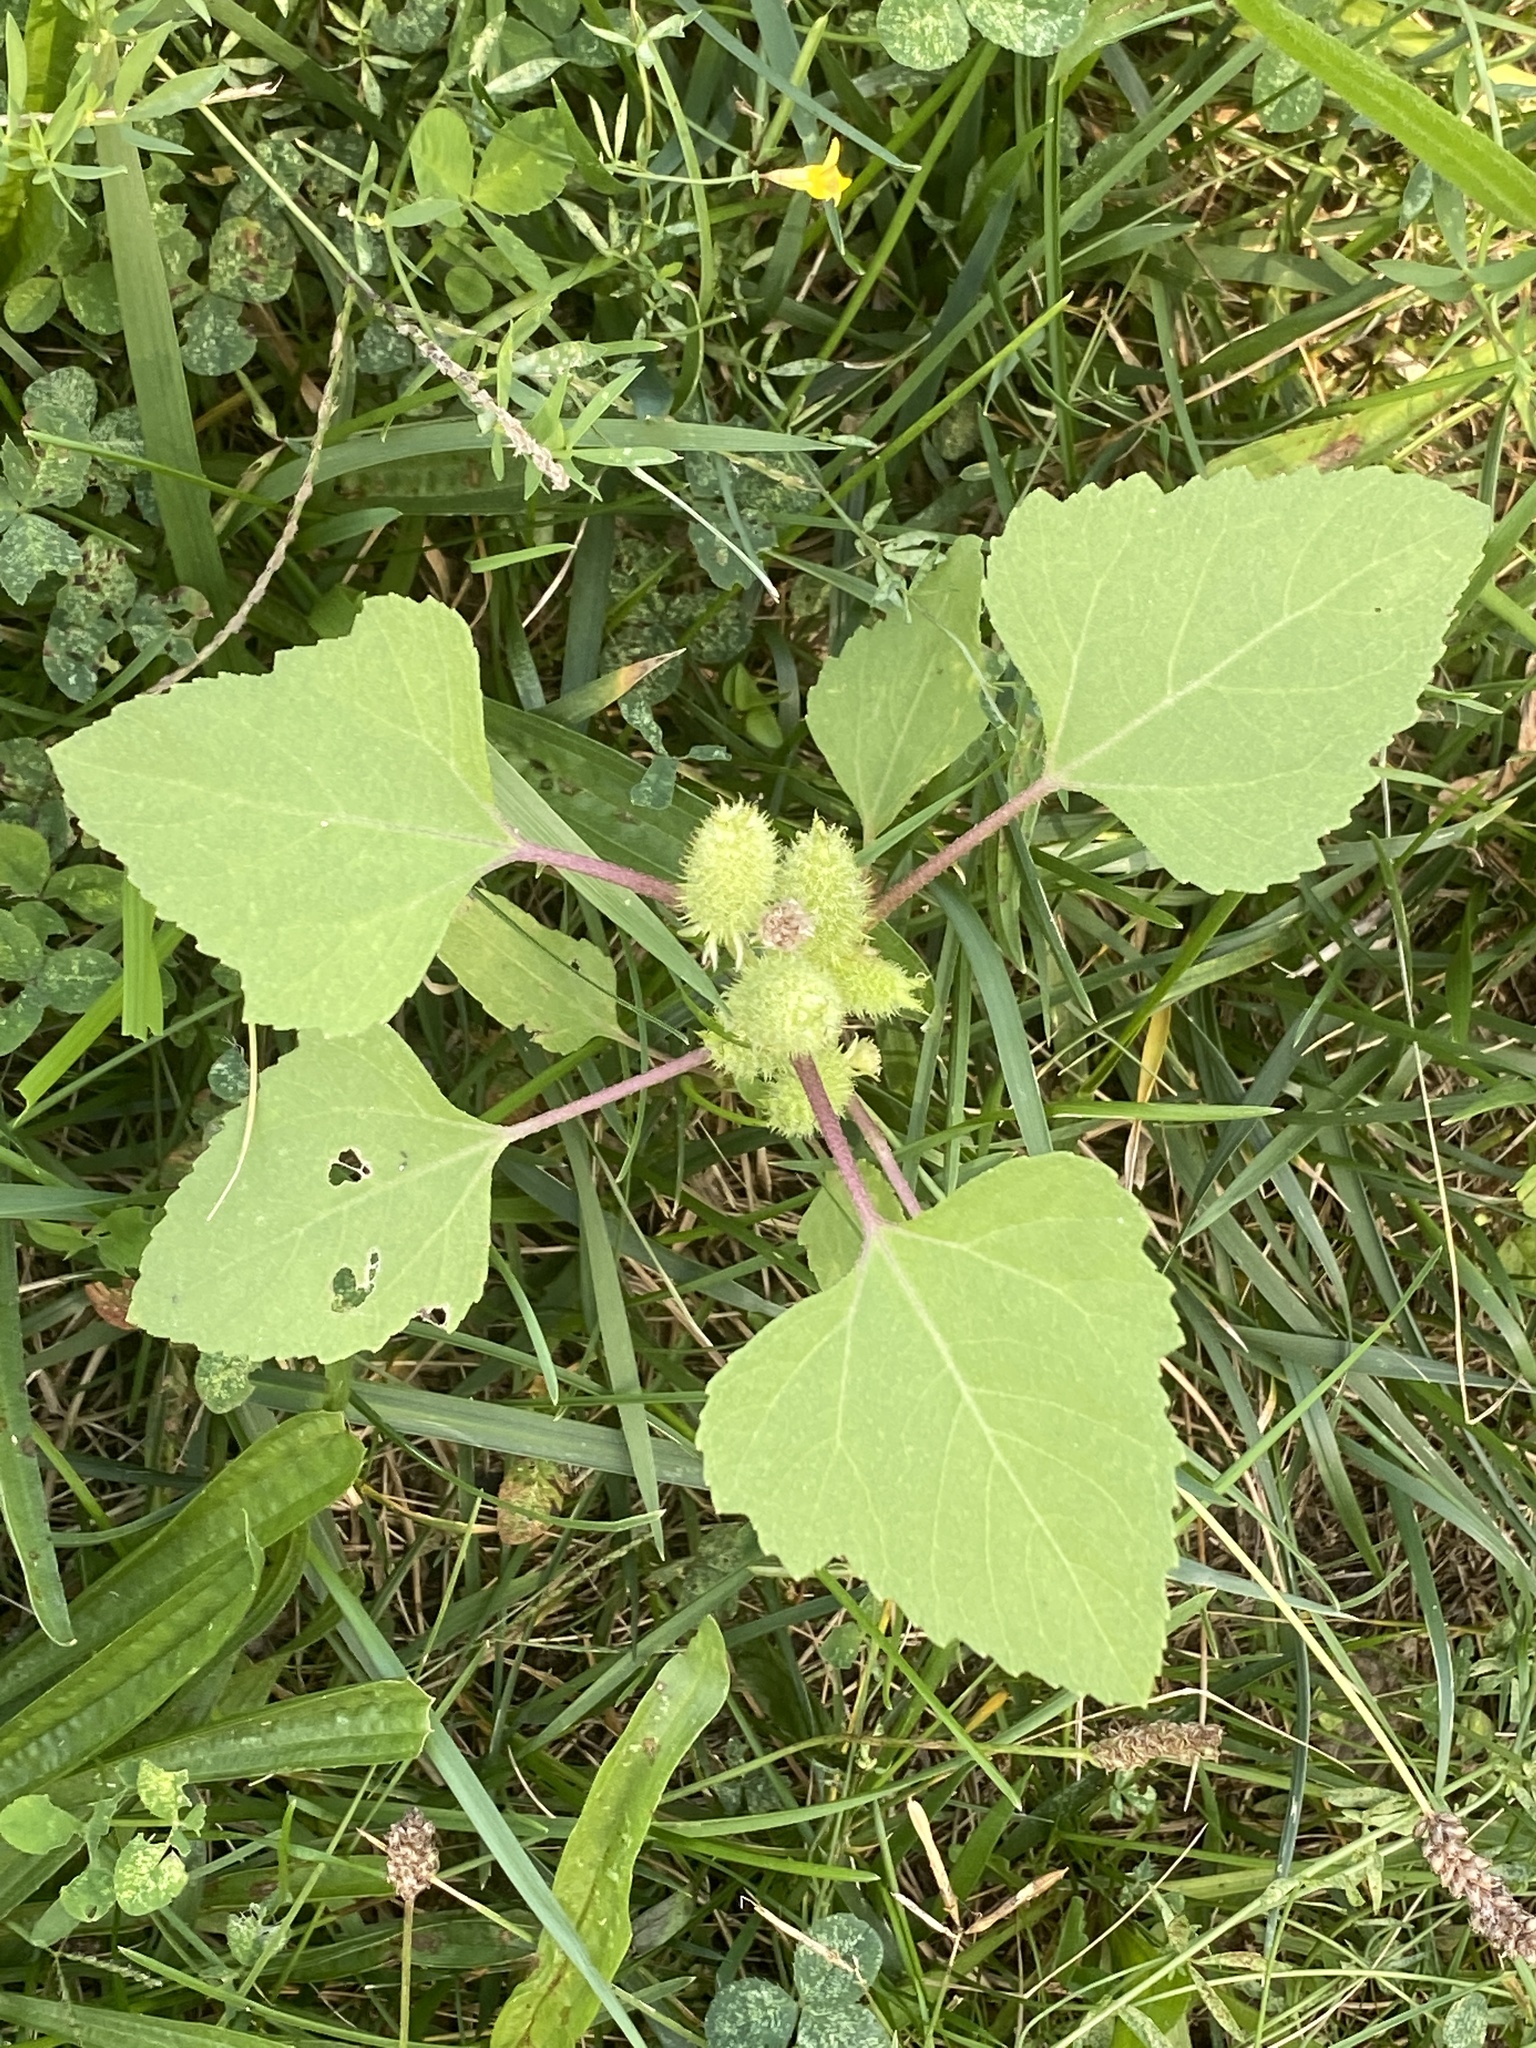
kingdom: Plantae
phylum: Tracheophyta
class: Magnoliopsida
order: Asterales
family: Asteraceae
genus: Xanthium
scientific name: Xanthium strumarium
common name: Rough cocklebur
